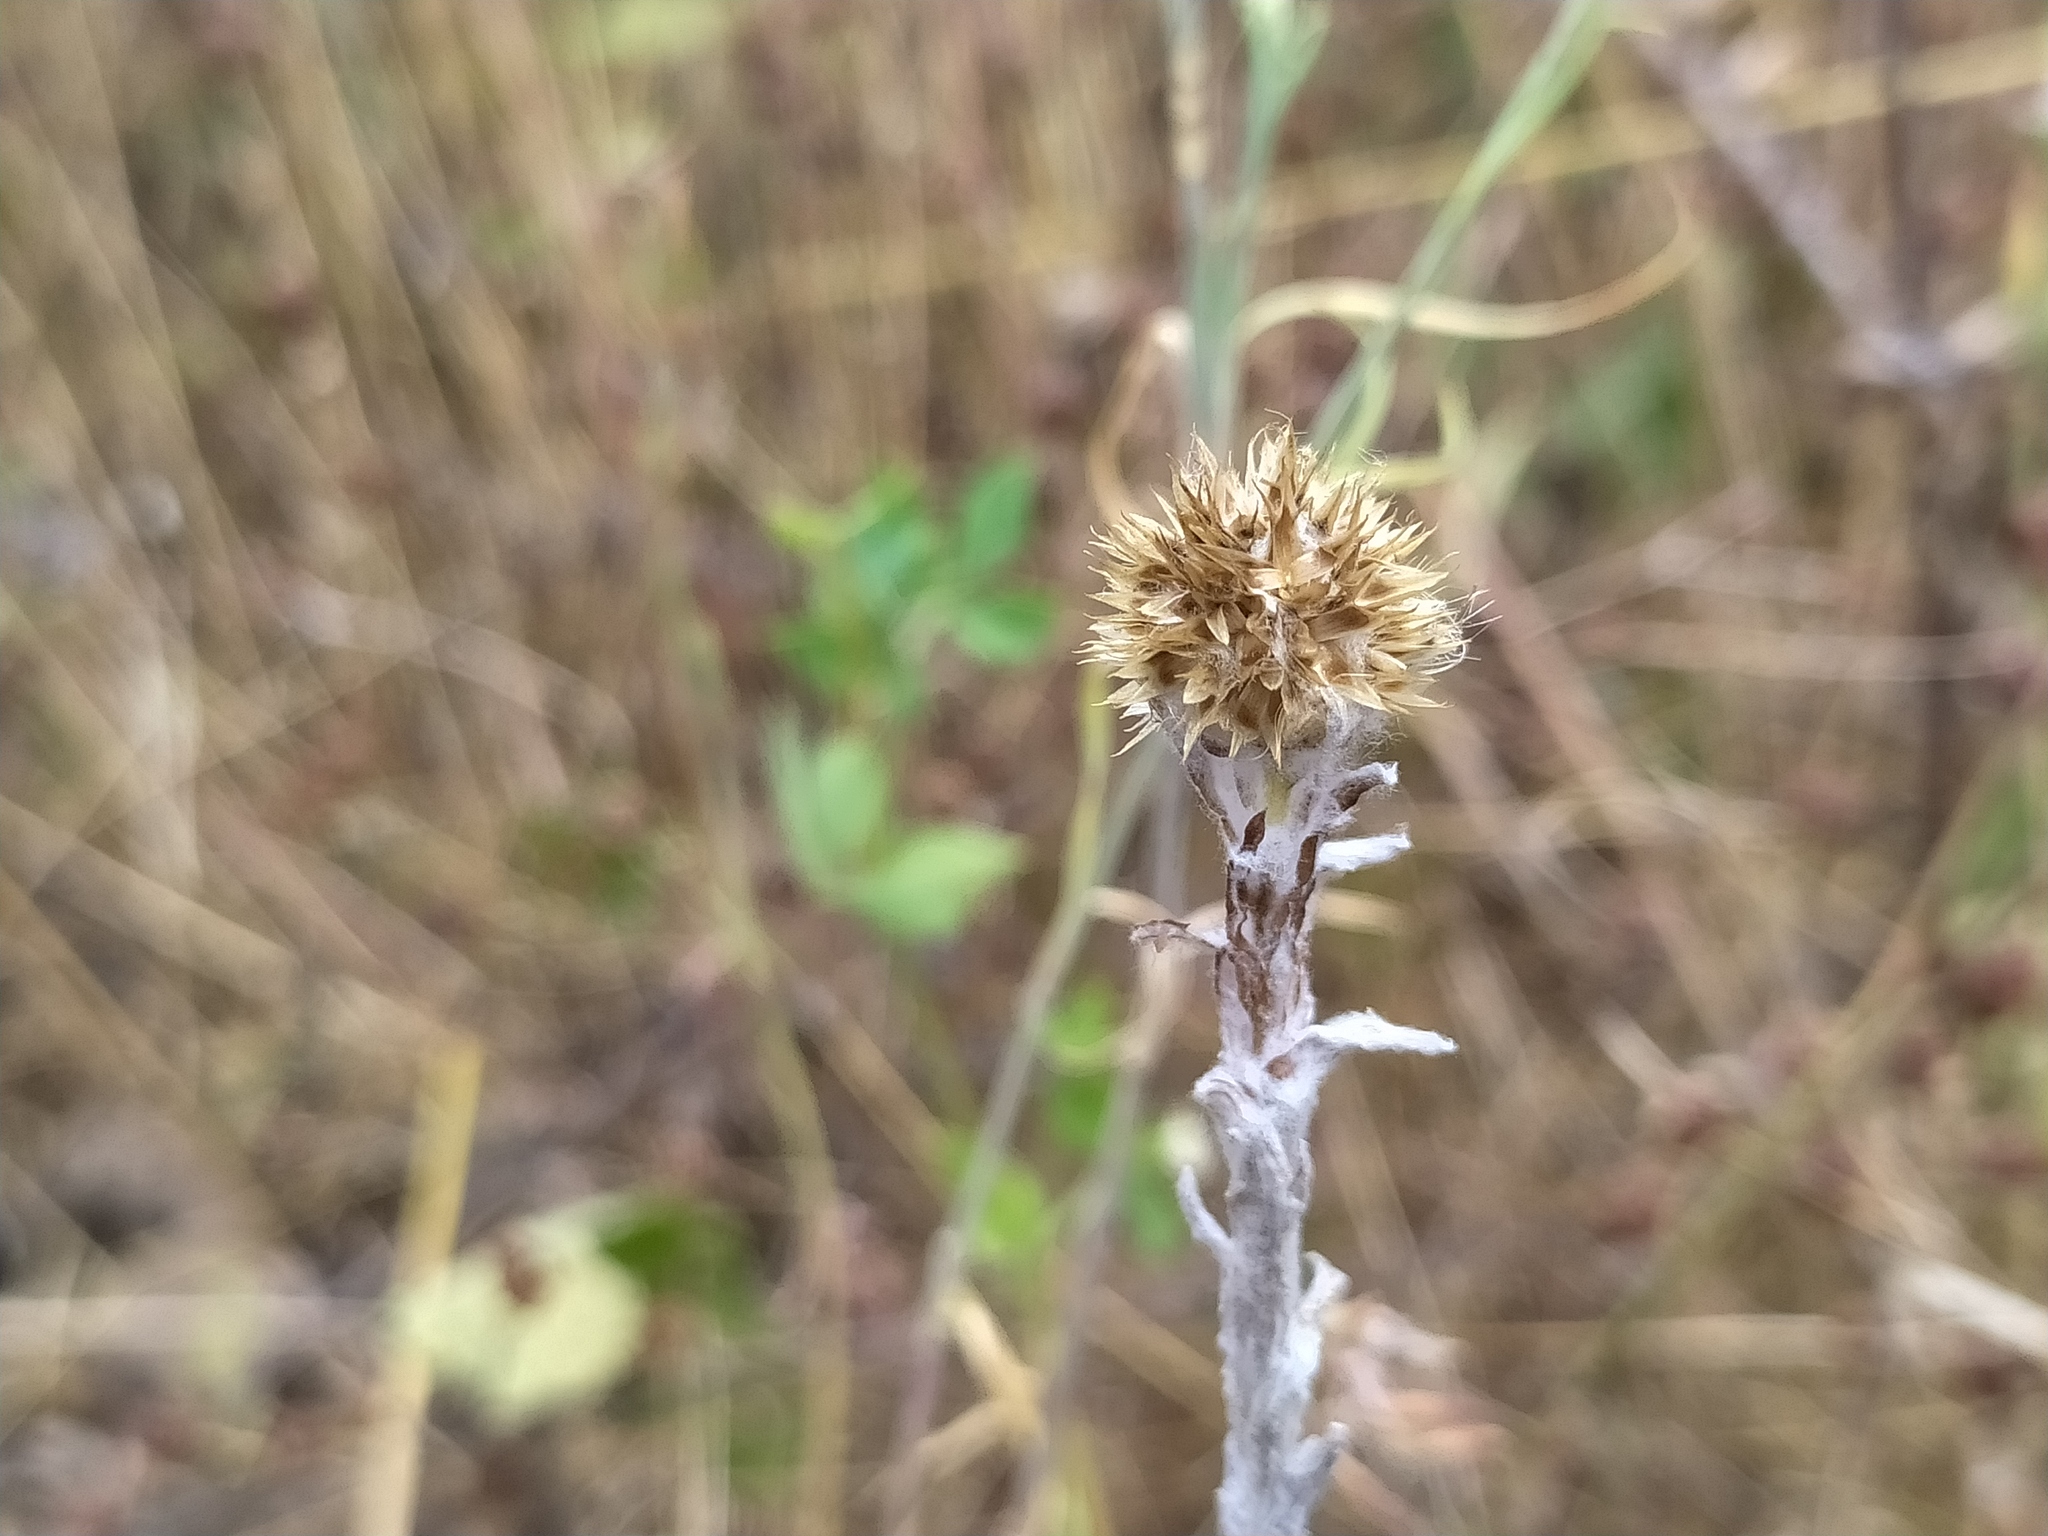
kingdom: Plantae
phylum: Tracheophyta
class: Magnoliopsida
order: Asterales
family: Asteraceae
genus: Filago
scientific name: Filago germanica
